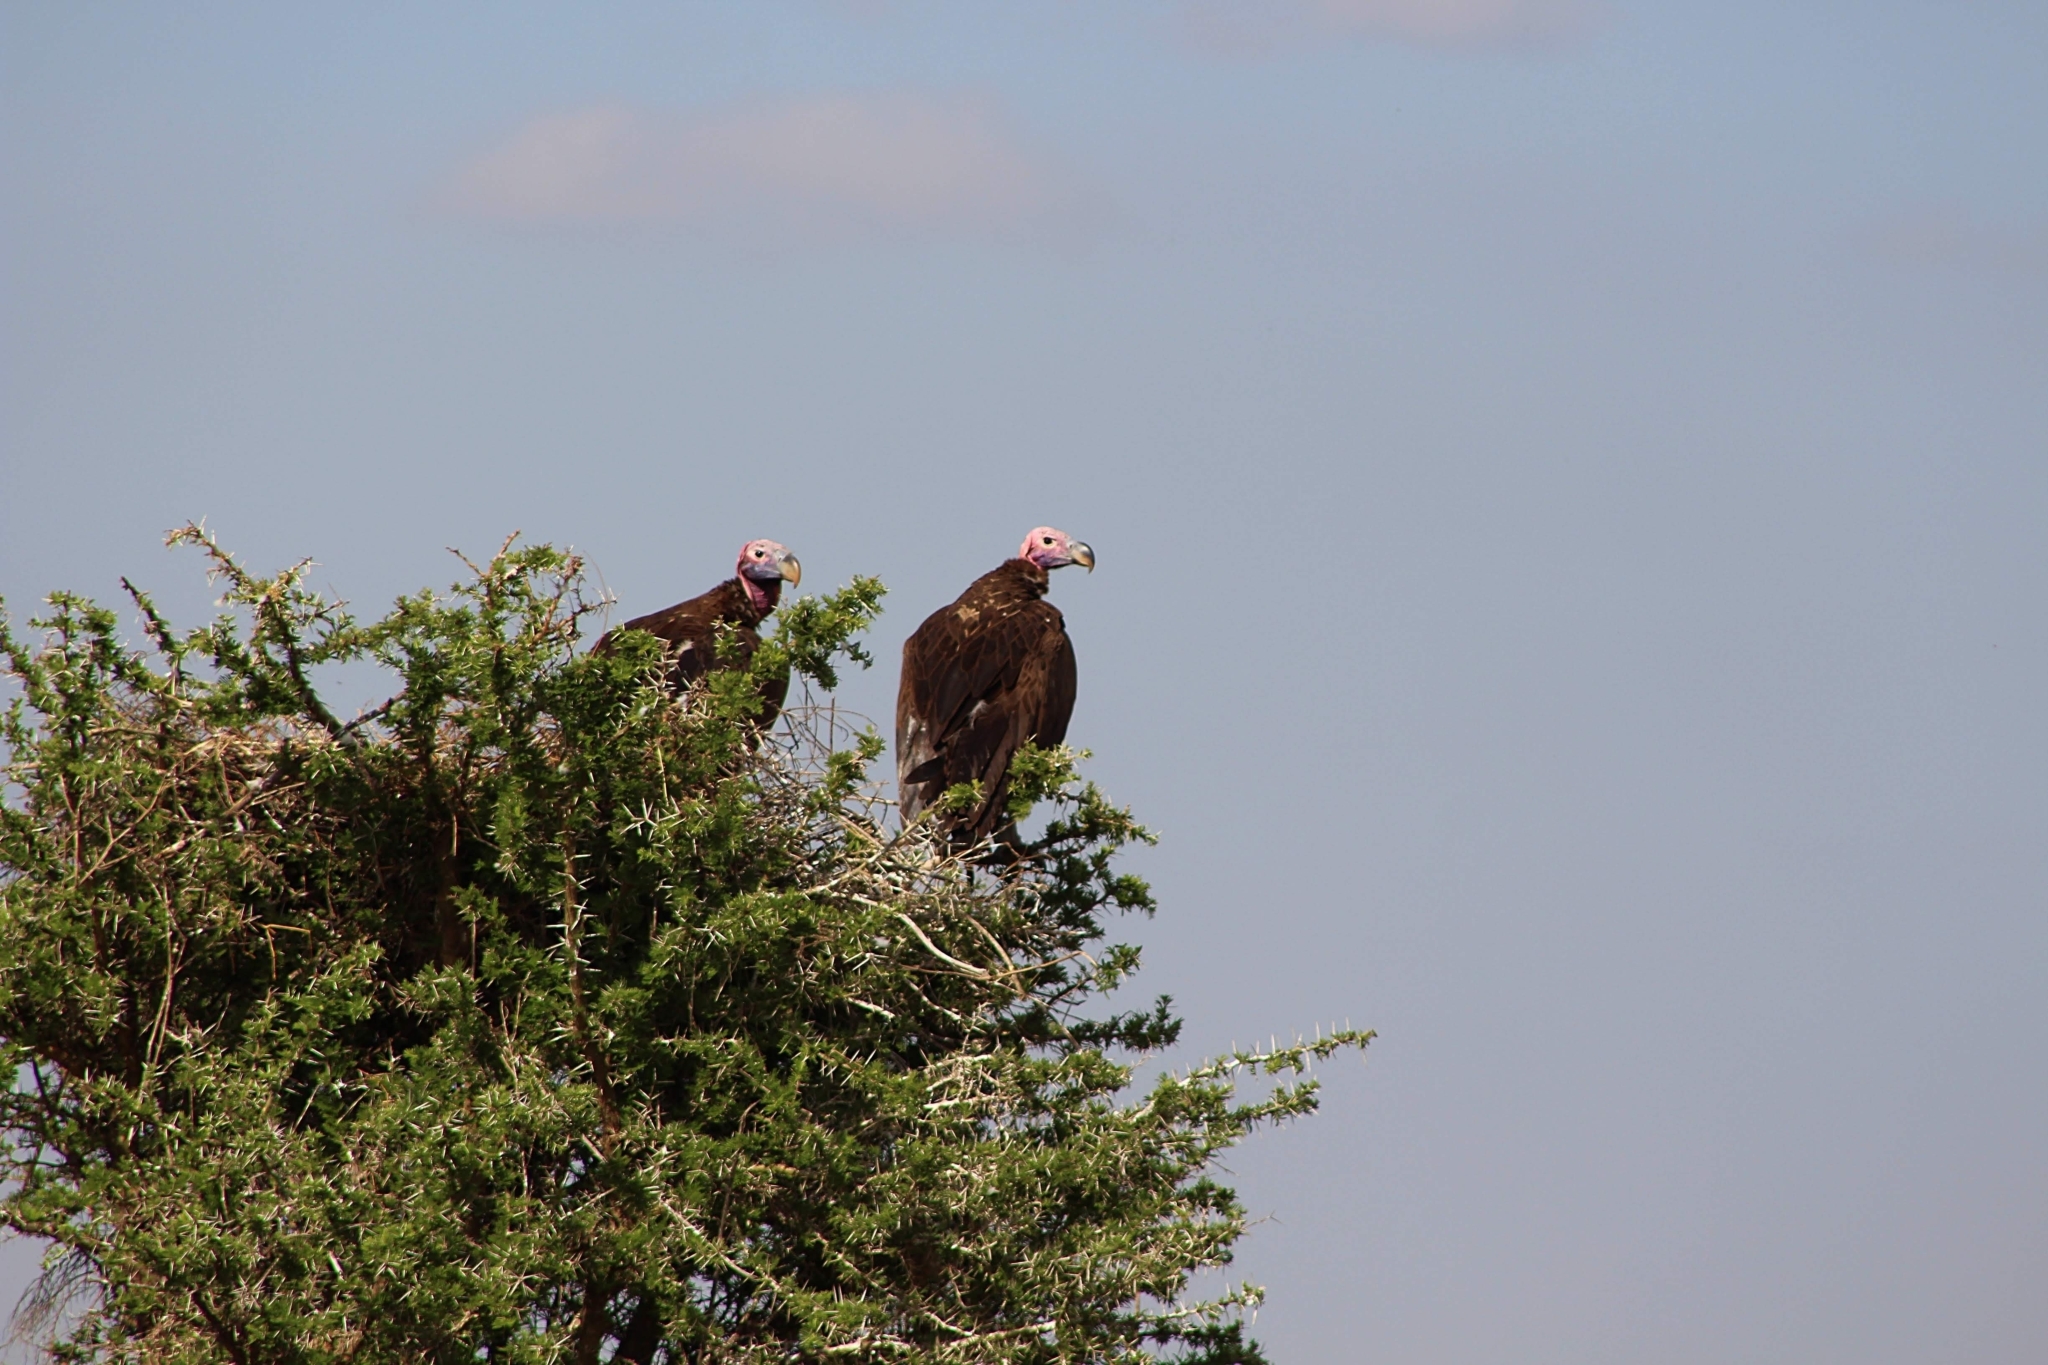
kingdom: Animalia
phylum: Chordata
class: Aves
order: Accipitriformes
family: Accipitridae
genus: Torgos
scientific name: Torgos tracheliotos
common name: Lappet-faced vulture
